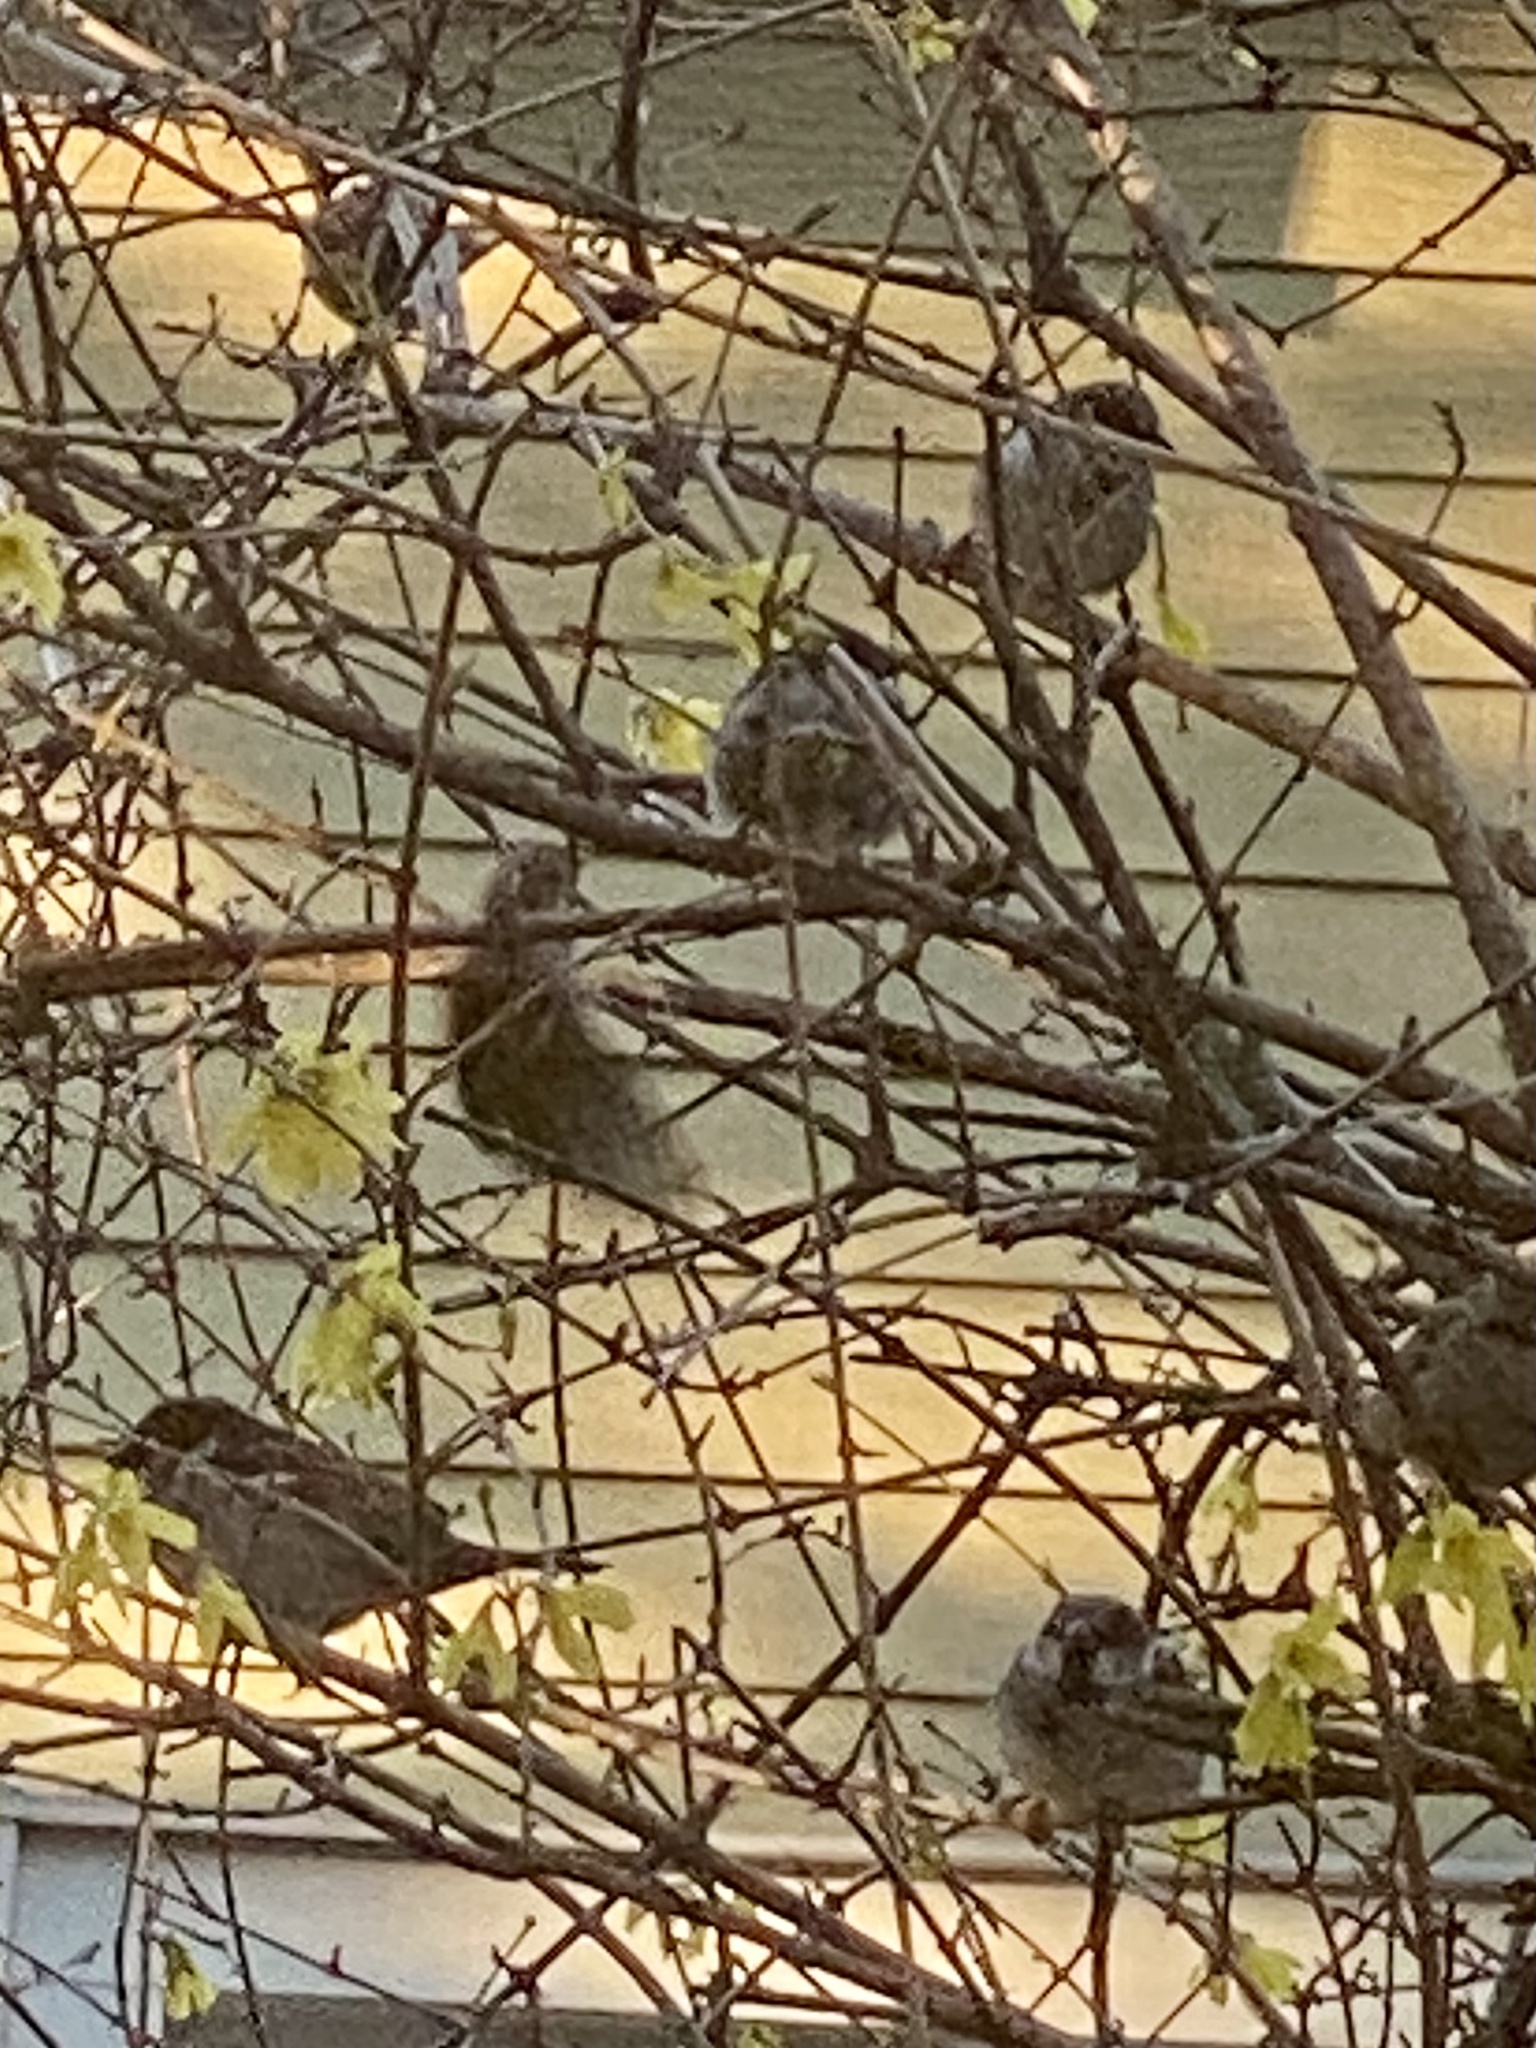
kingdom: Animalia
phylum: Chordata
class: Aves
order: Passeriformes
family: Passeridae
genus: Passer
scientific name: Passer domesticus
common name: House sparrow
